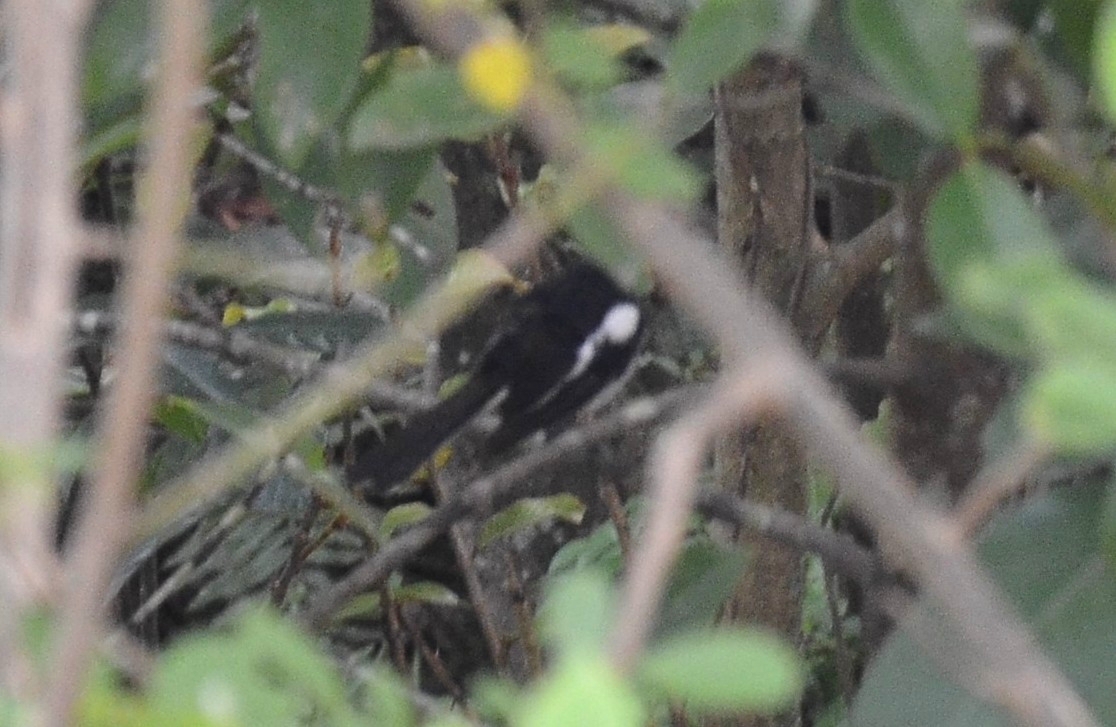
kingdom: Animalia
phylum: Chordata
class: Aves
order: Passeriformes
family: Muscicapidae
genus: Copsychus
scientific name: Copsychus saularis
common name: Oriental magpie-robin
